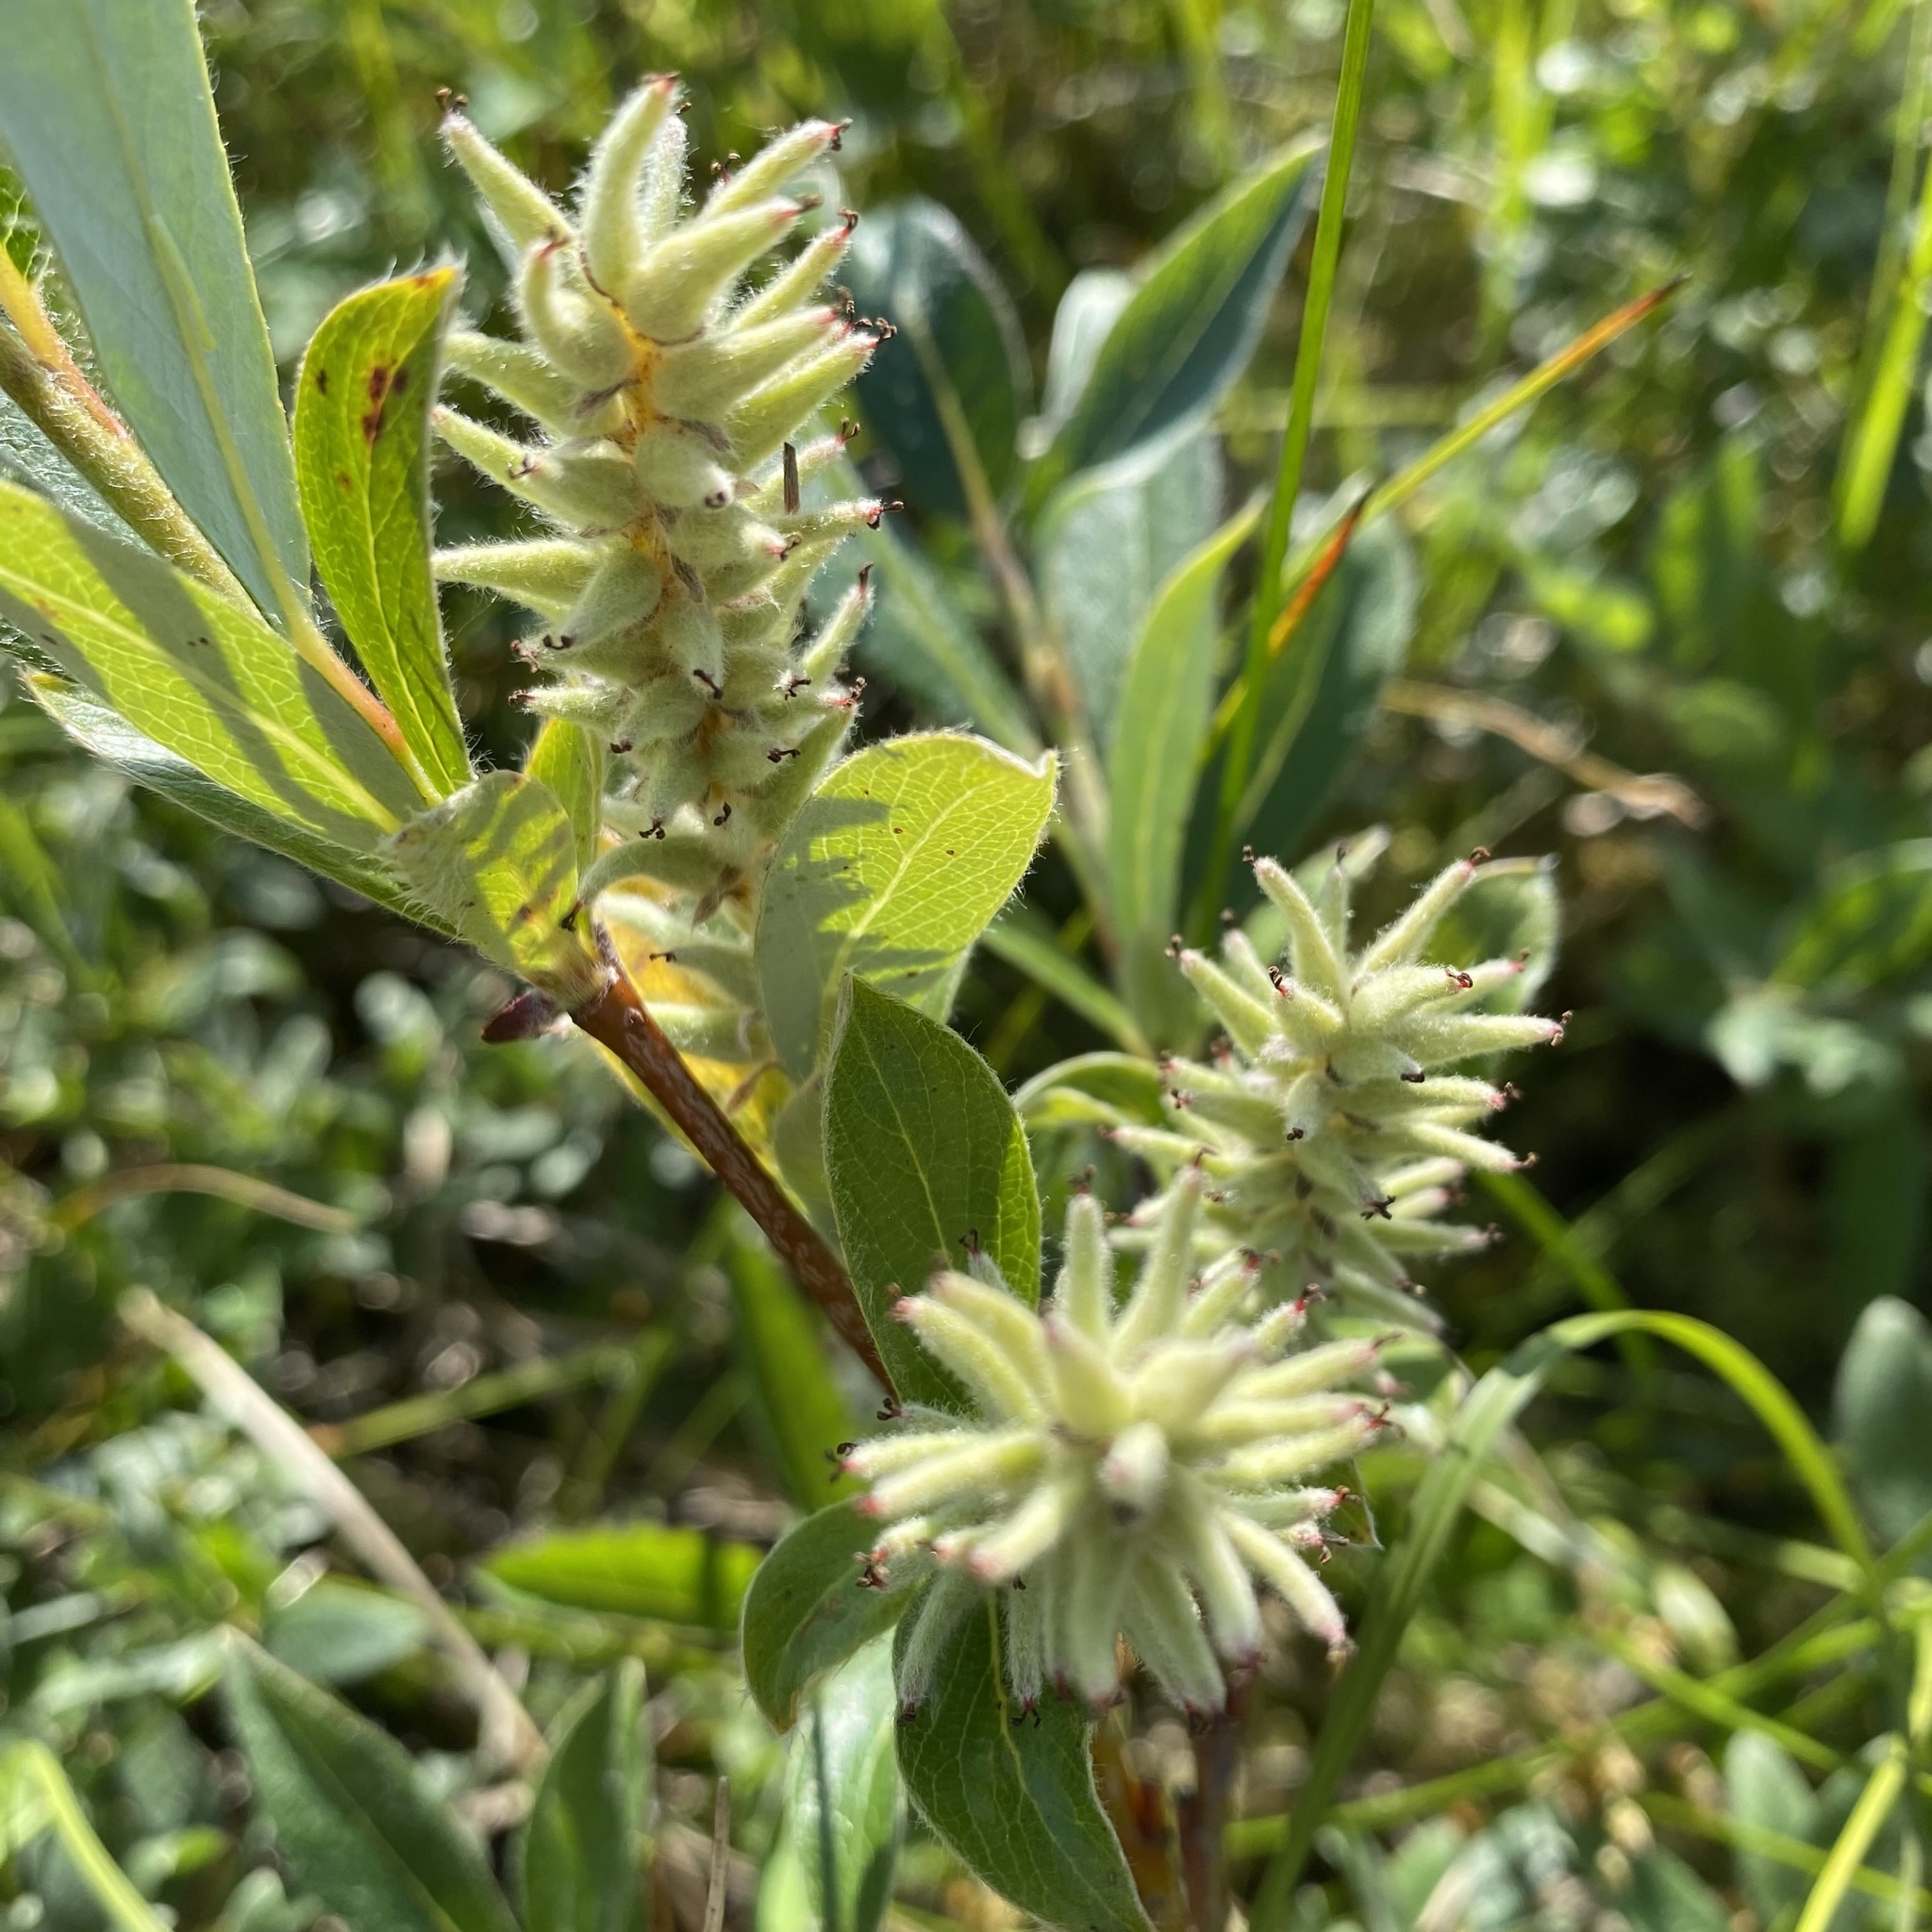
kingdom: Plantae
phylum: Tracheophyta
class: Magnoliopsida
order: Malpighiales
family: Salicaceae
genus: Salix
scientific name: Salix glauca
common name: Glaucous willow
